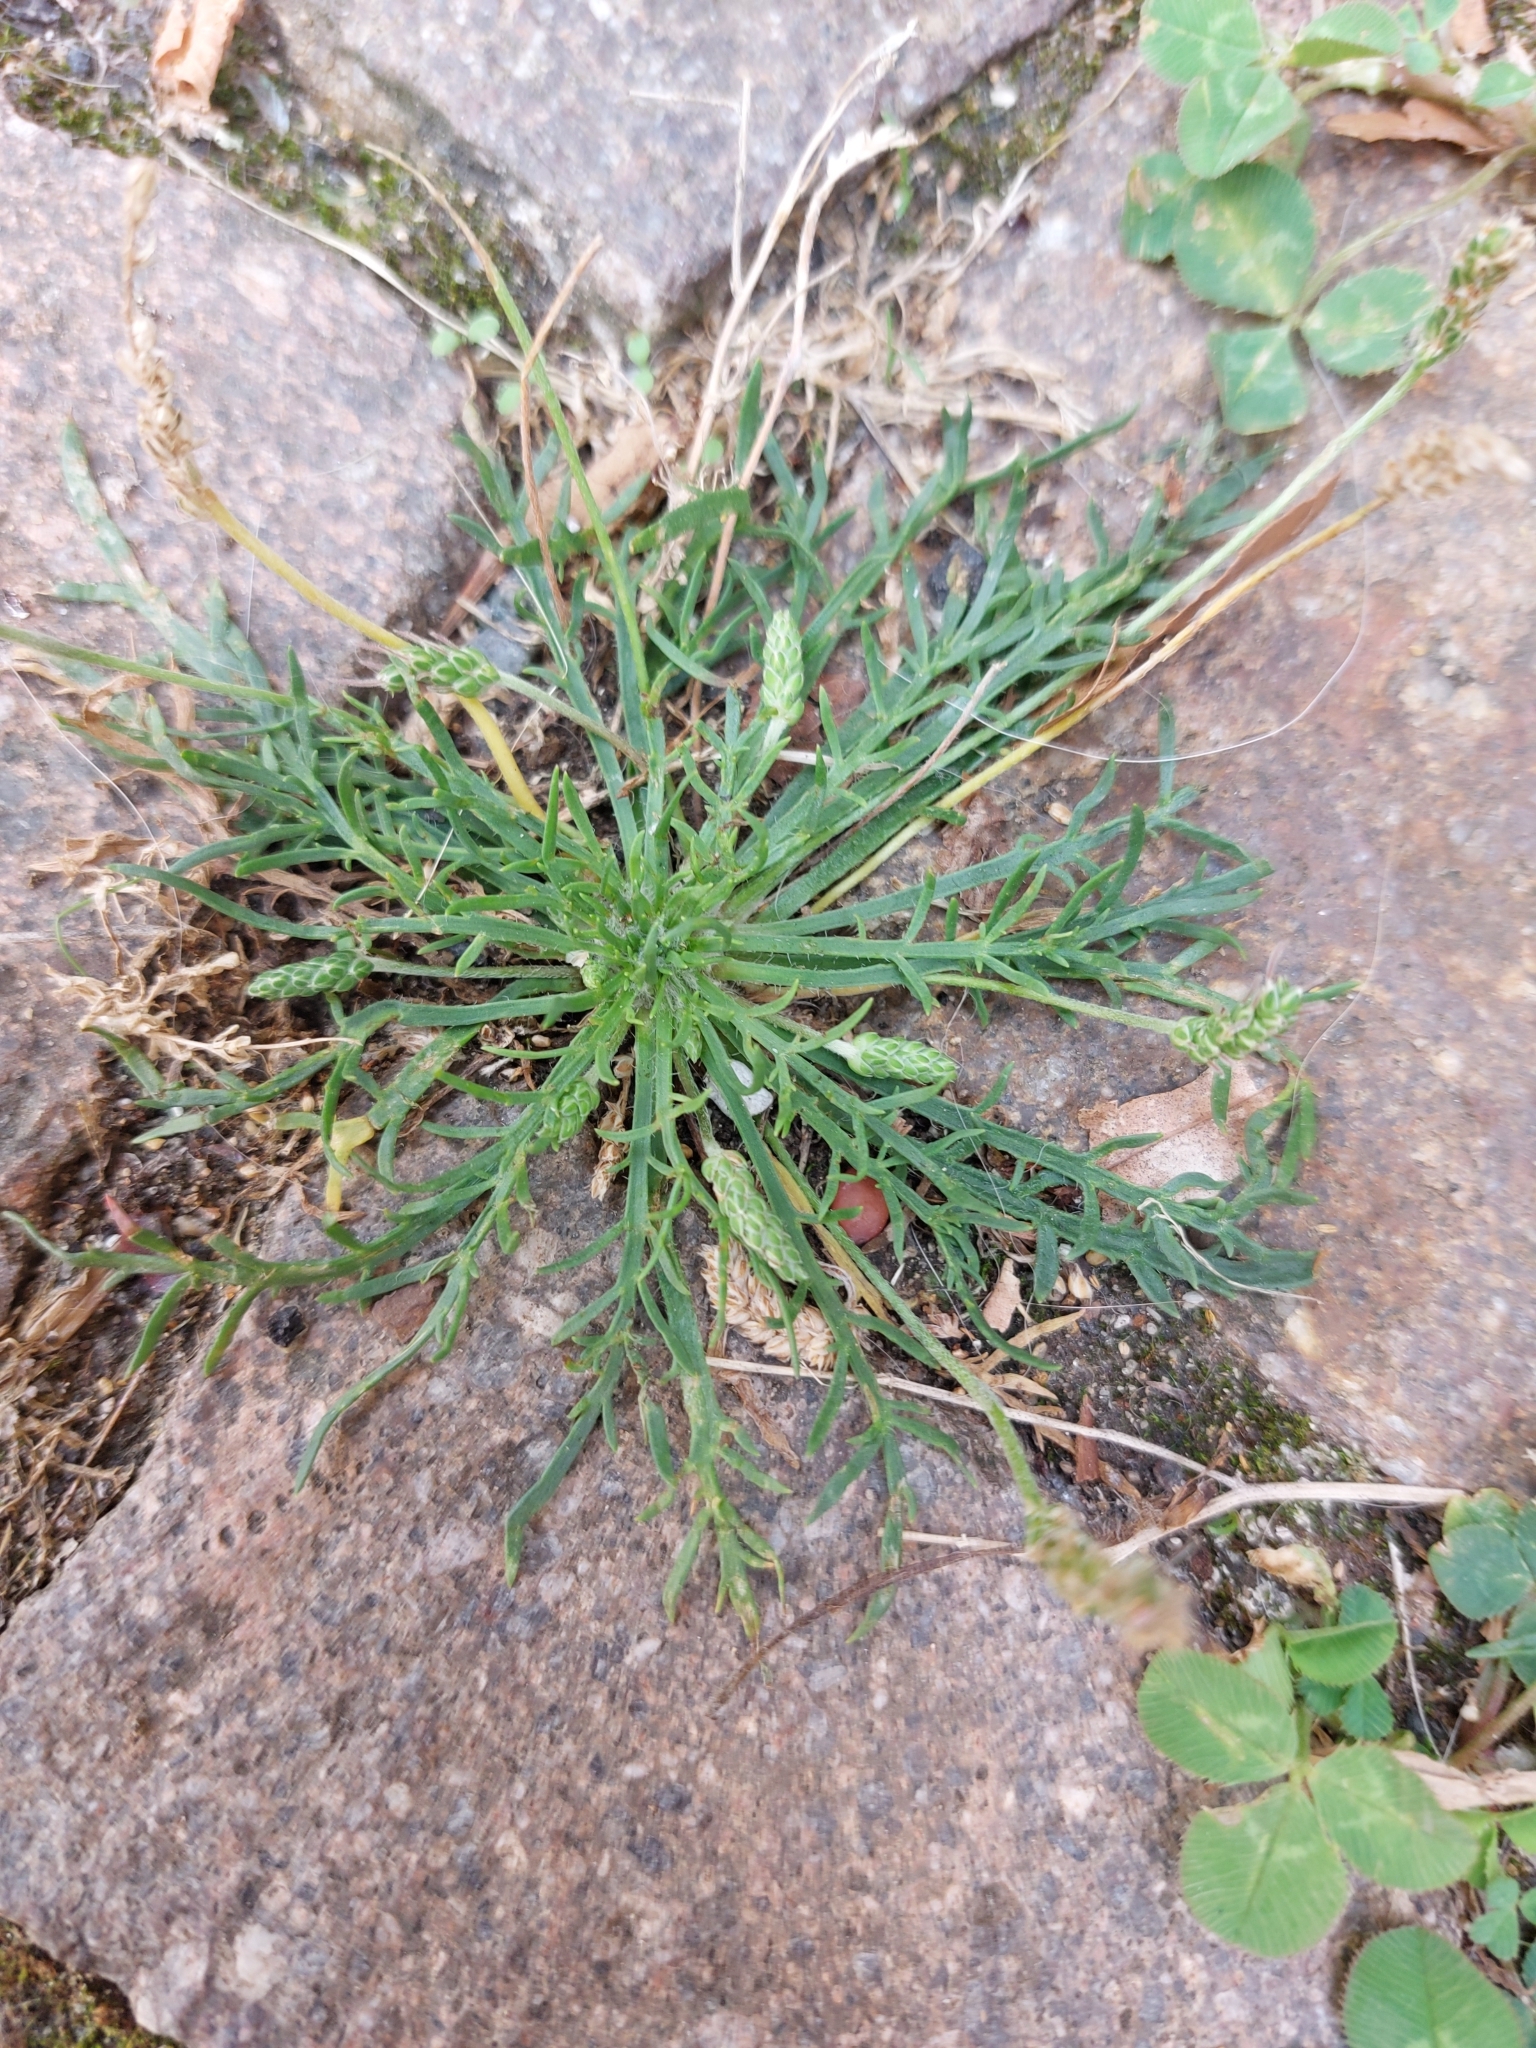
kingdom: Plantae
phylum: Tracheophyta
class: Magnoliopsida
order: Lamiales
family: Plantaginaceae
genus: Plantago
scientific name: Plantago coronopus
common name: Buck's-horn plantain
